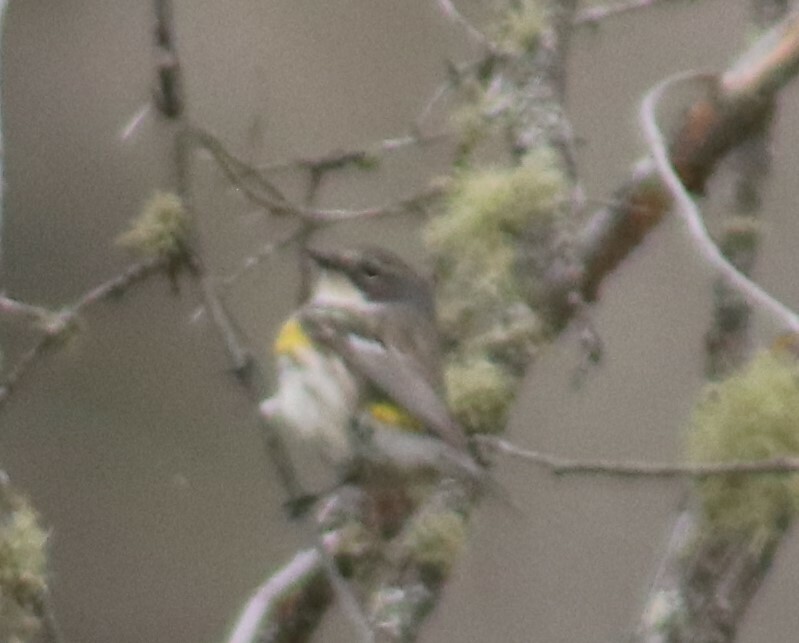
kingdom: Animalia
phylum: Chordata
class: Aves
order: Passeriformes
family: Parulidae
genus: Setophaga
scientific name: Setophaga coronata
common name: Myrtle warbler
